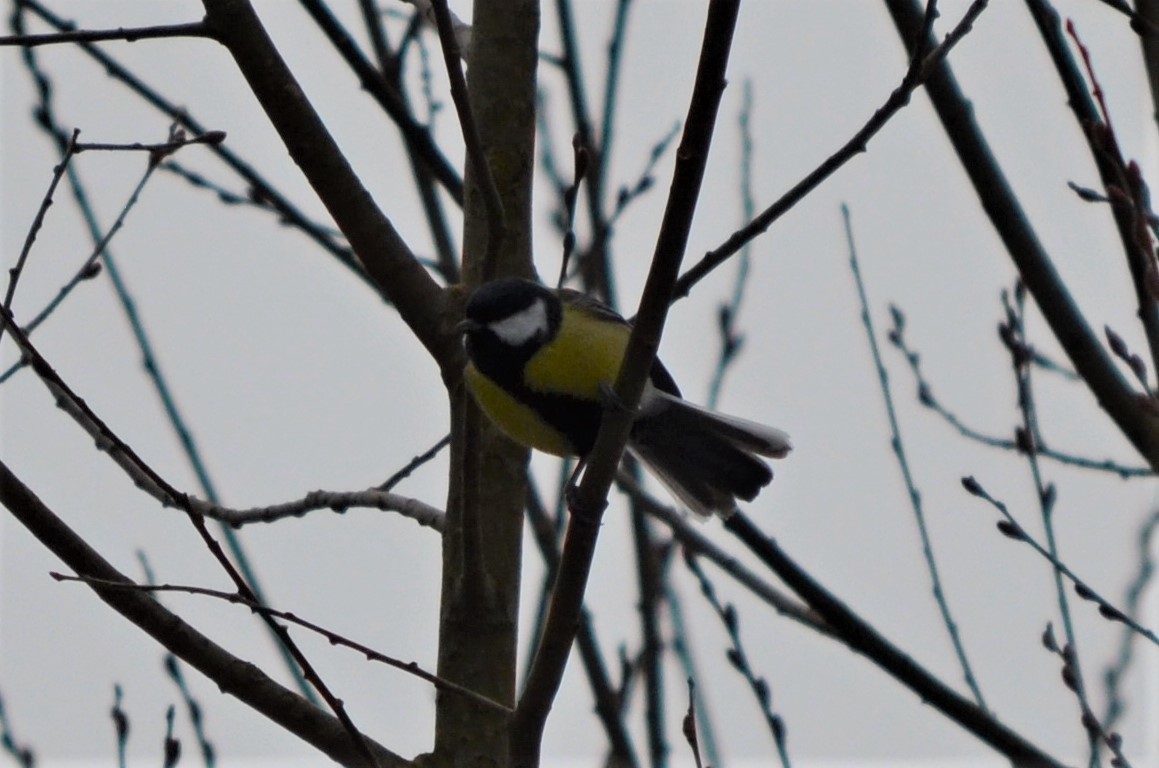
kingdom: Animalia
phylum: Chordata
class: Aves
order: Passeriformes
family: Paridae
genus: Parus
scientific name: Parus major
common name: Great tit
